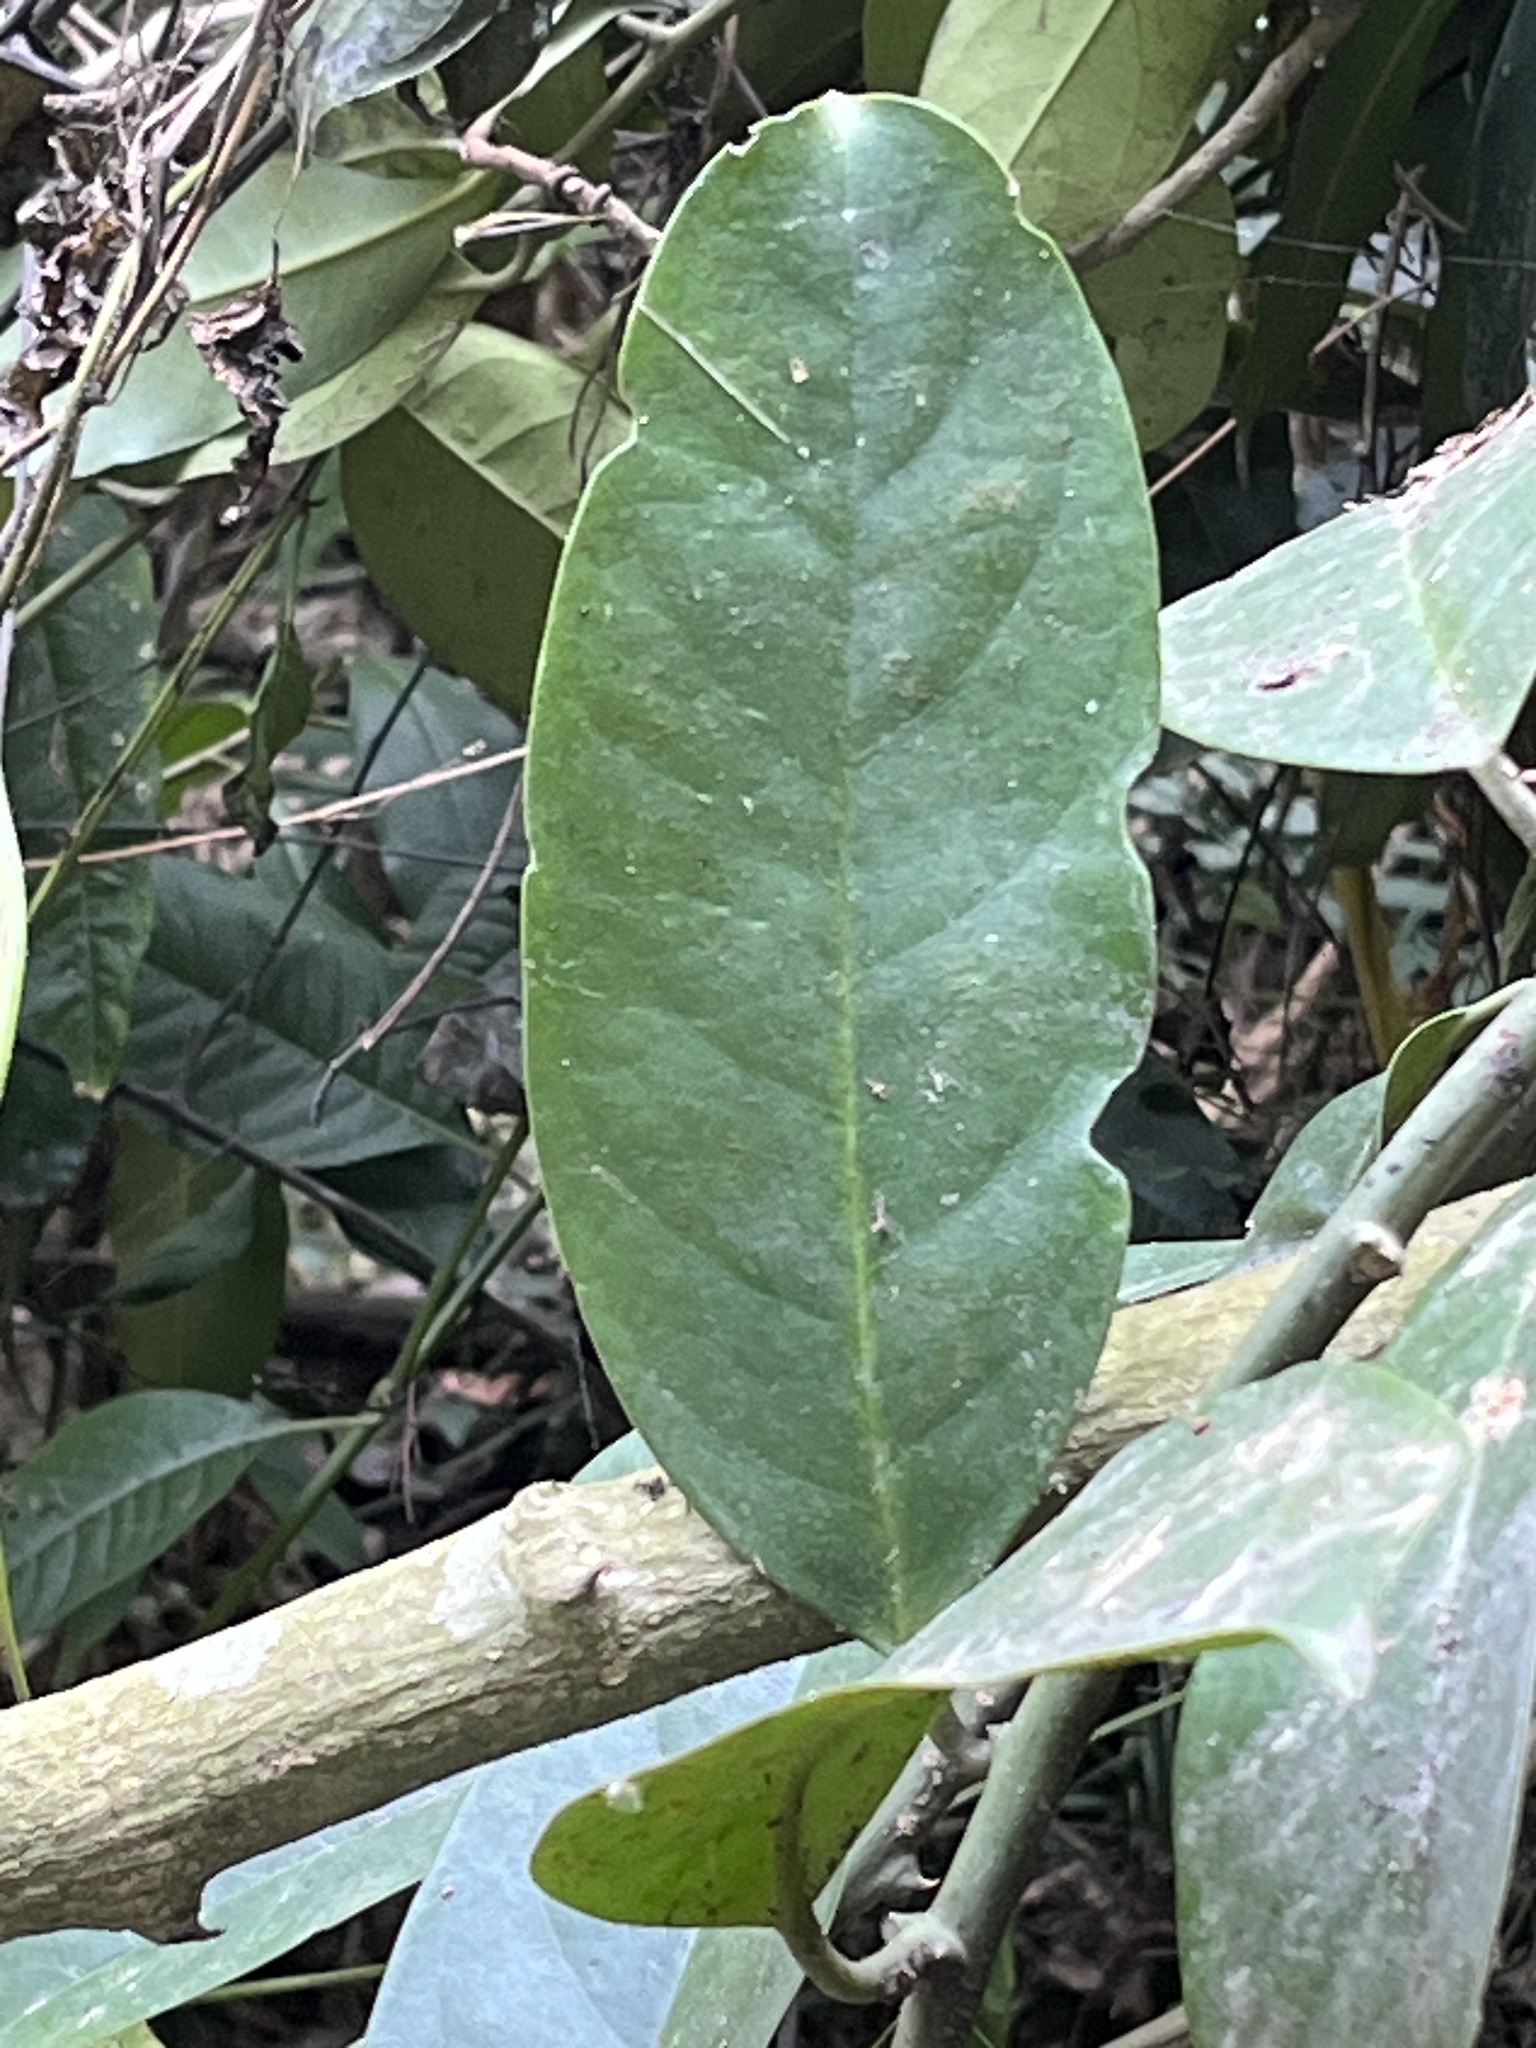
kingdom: Plantae
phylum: Tracheophyta
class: Magnoliopsida
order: Brassicales
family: Capparaceae
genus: Capparis
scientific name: Capparis formosana
